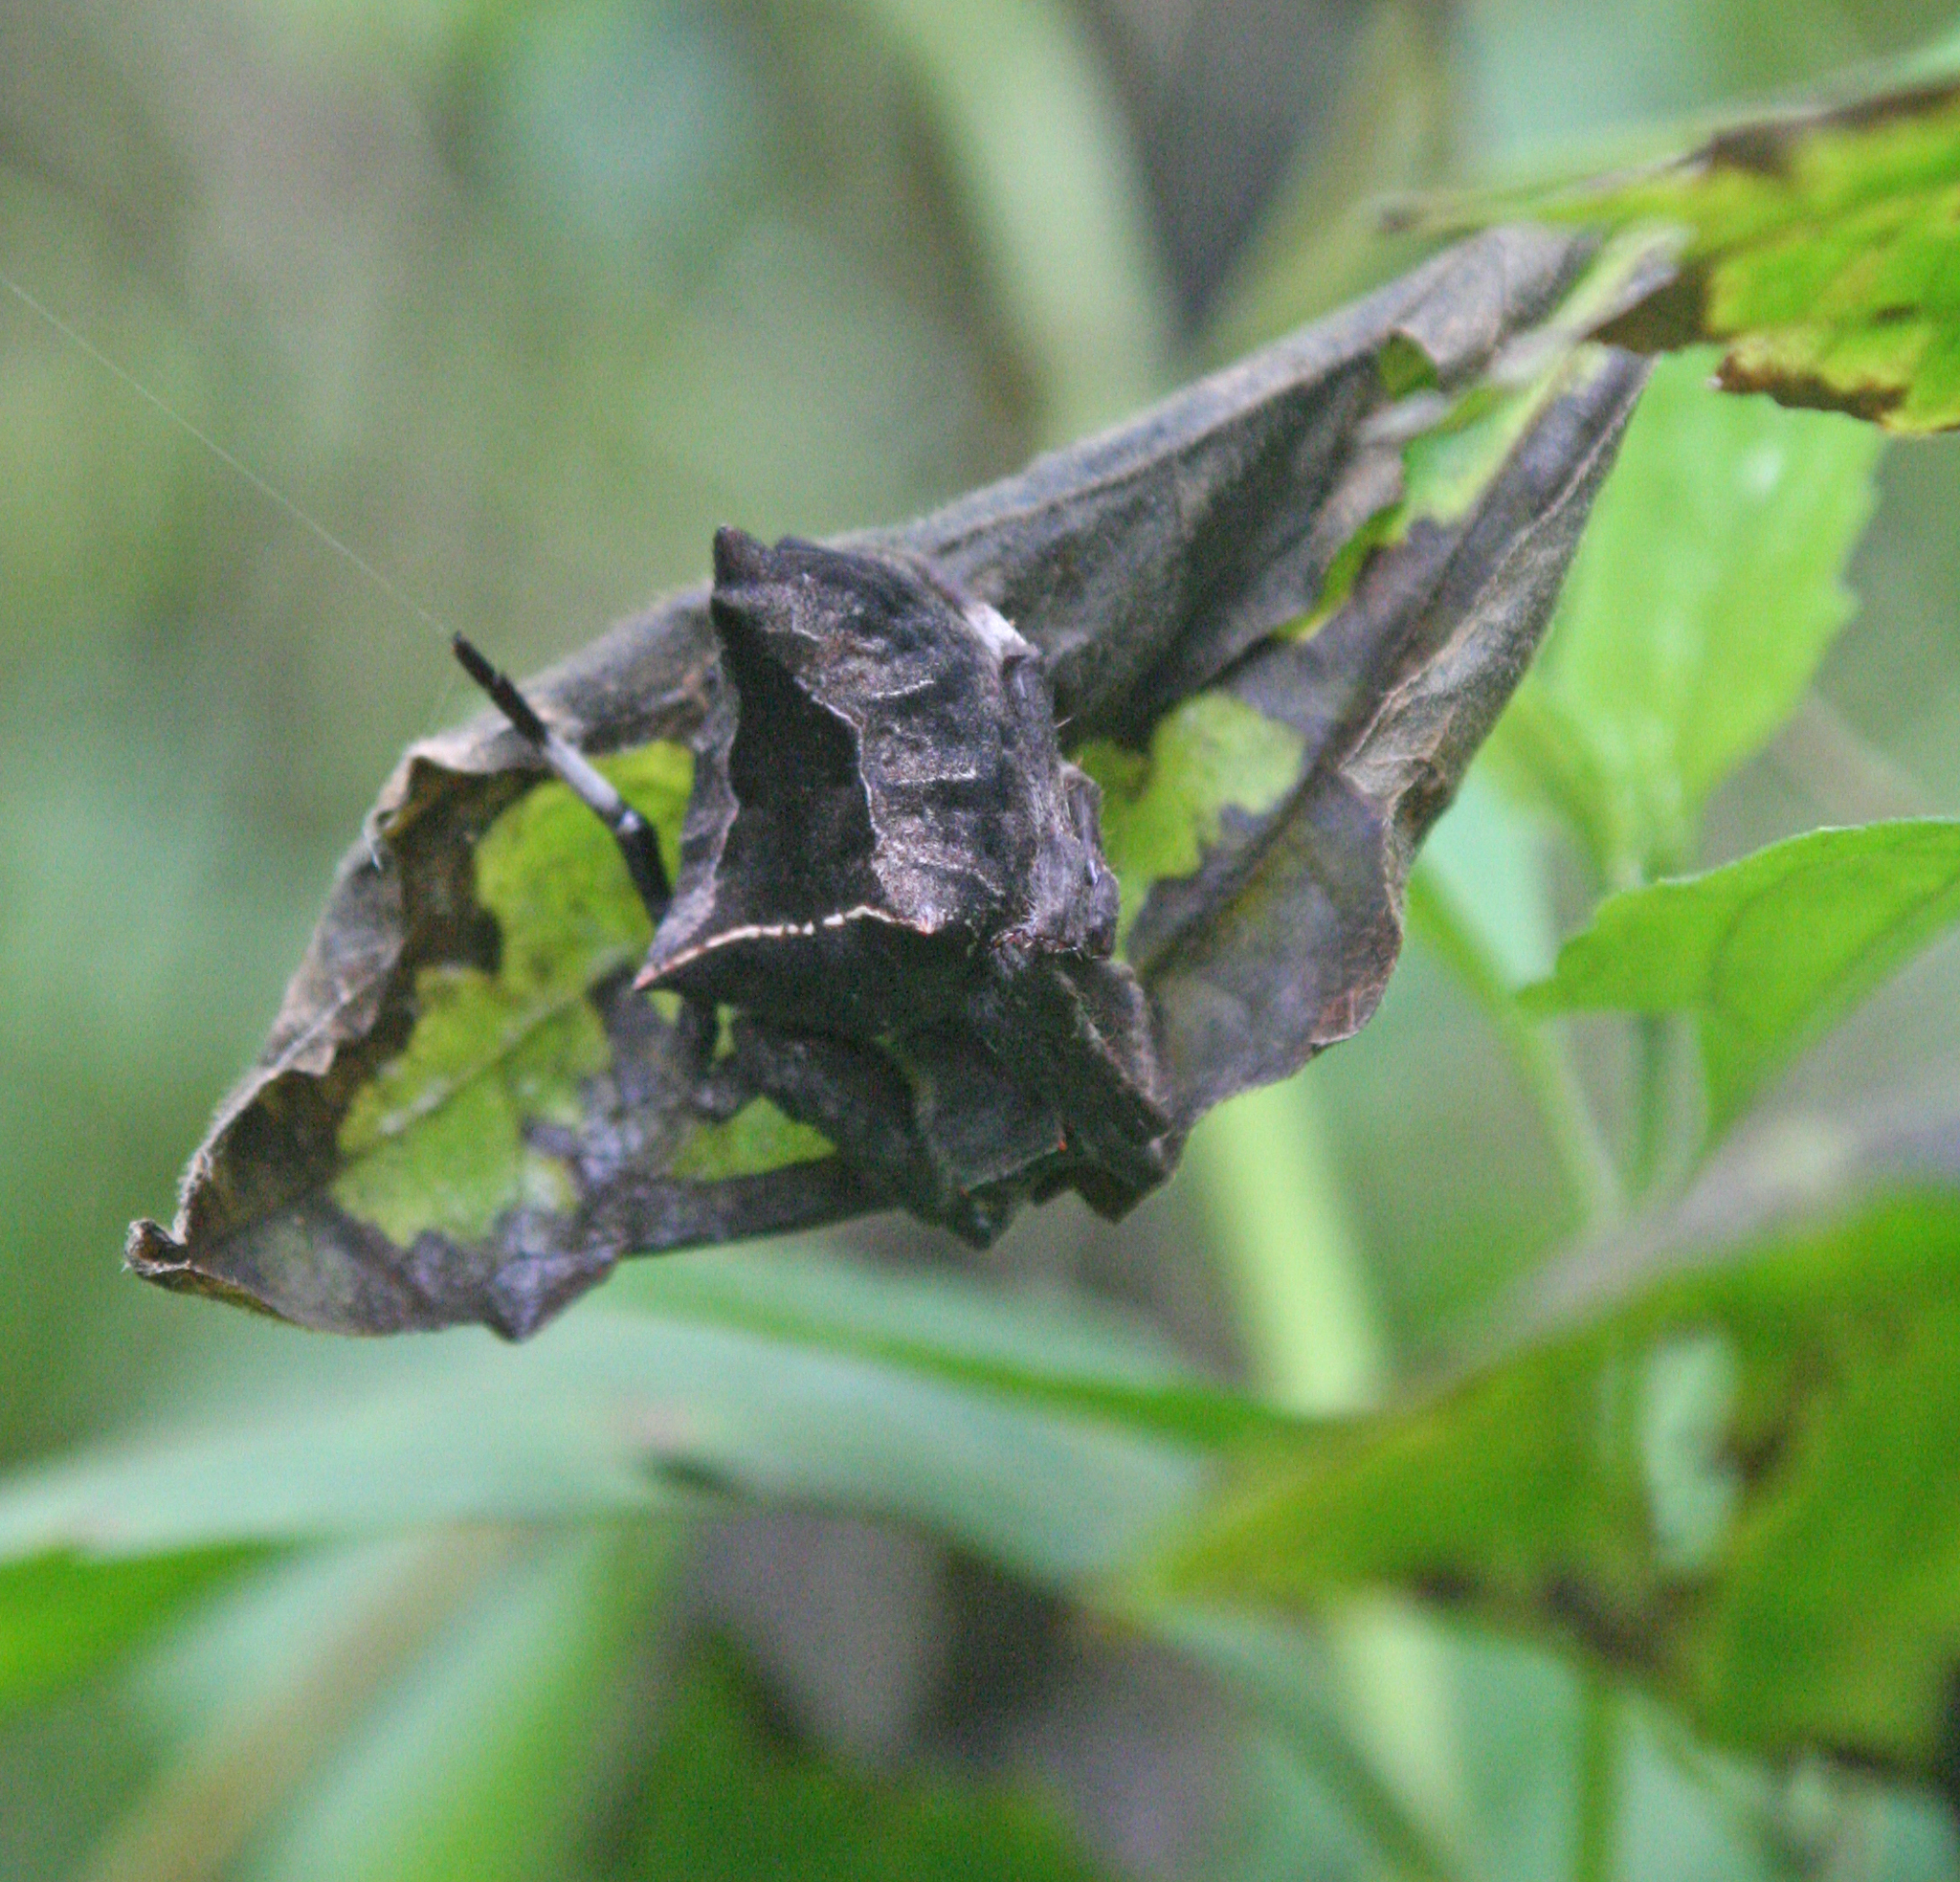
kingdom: Animalia
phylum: Arthropoda
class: Arachnida
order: Araneae
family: Araneidae
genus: Parawixia
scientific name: Parawixia dehaani
